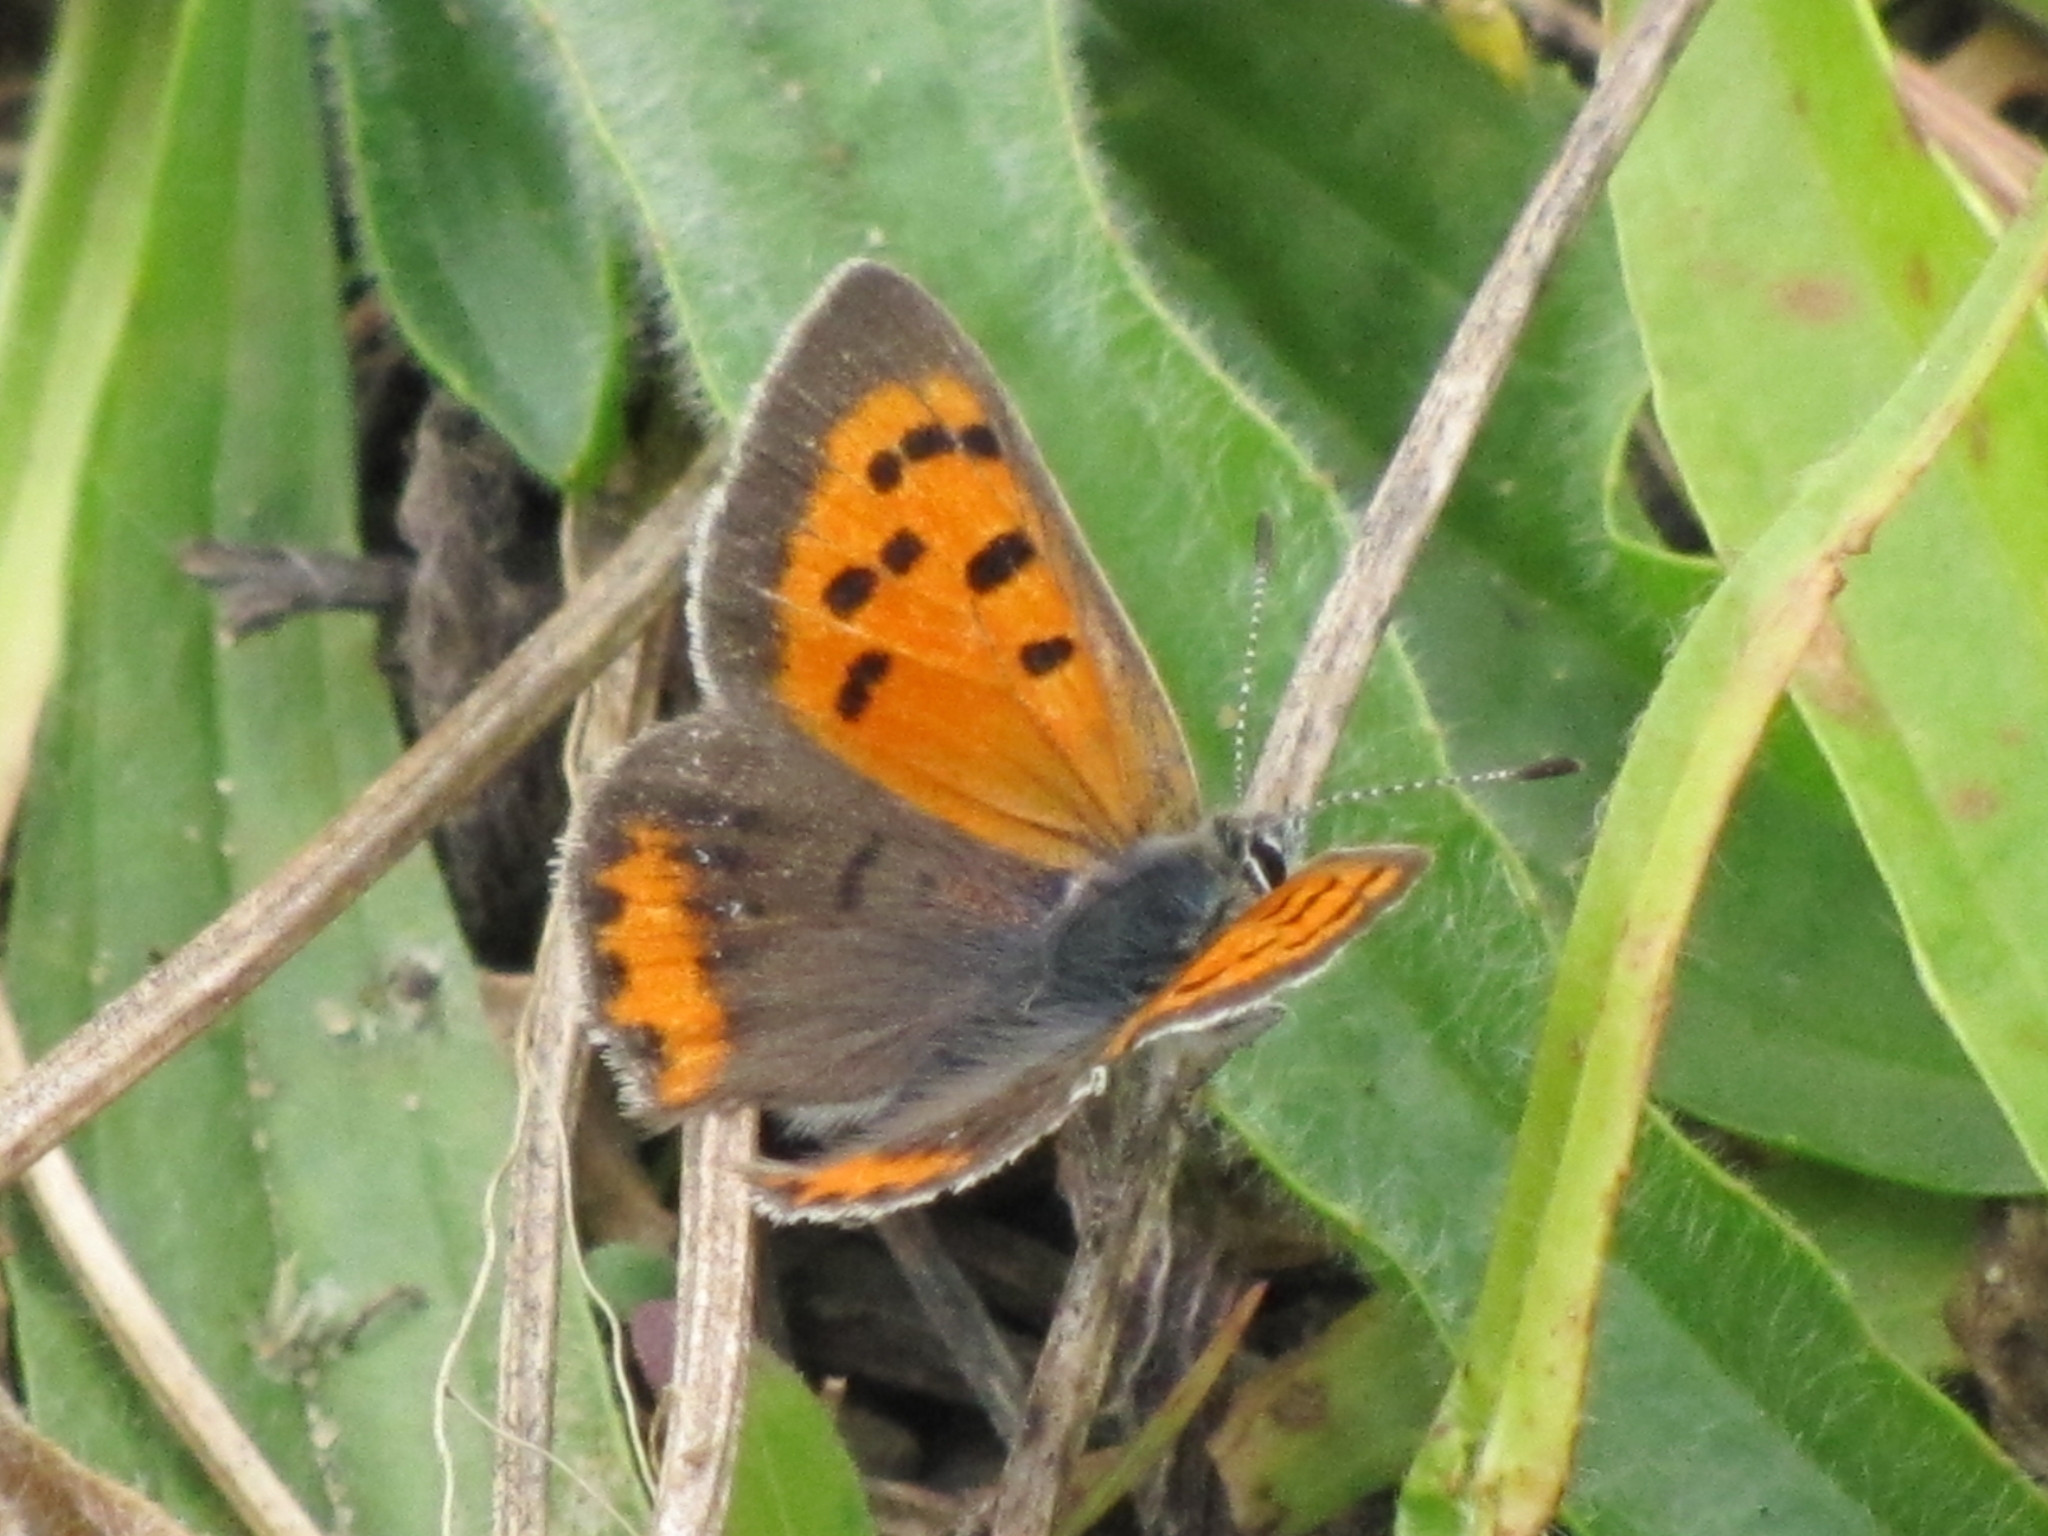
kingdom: Animalia
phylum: Arthropoda
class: Insecta
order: Lepidoptera
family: Lycaenidae
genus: Lycaena
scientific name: Lycaena hypophlaeas
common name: American copper
